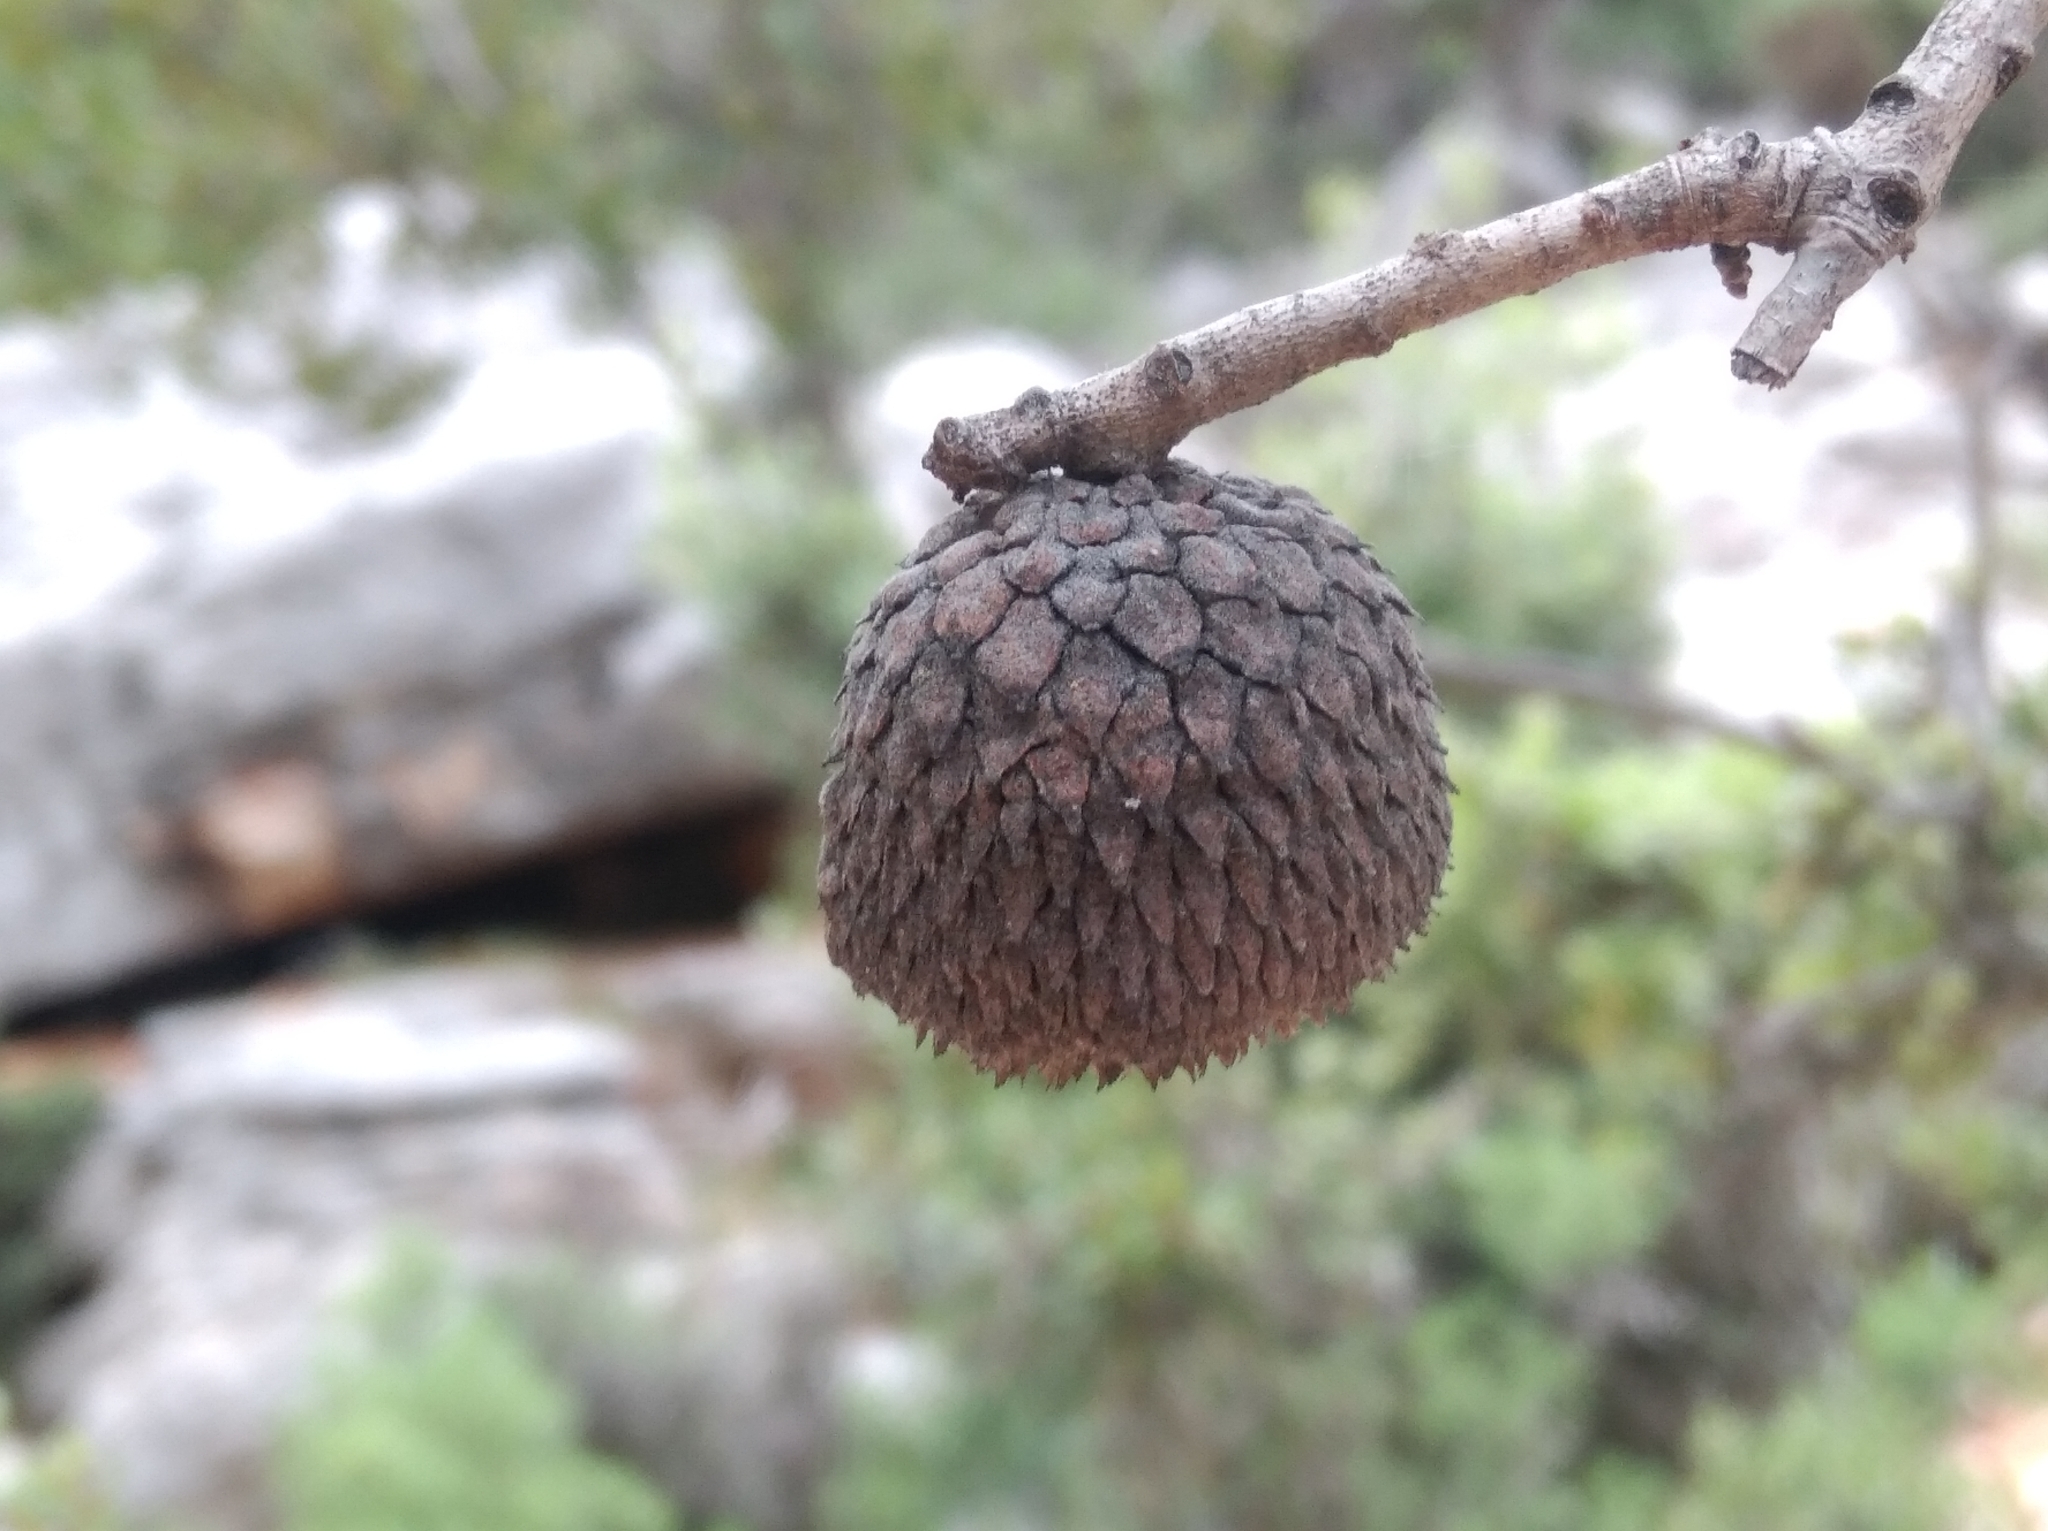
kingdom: Plantae
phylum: Tracheophyta
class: Magnoliopsida
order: Fagales
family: Fagaceae
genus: Quercus
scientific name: Quercus aucheri
